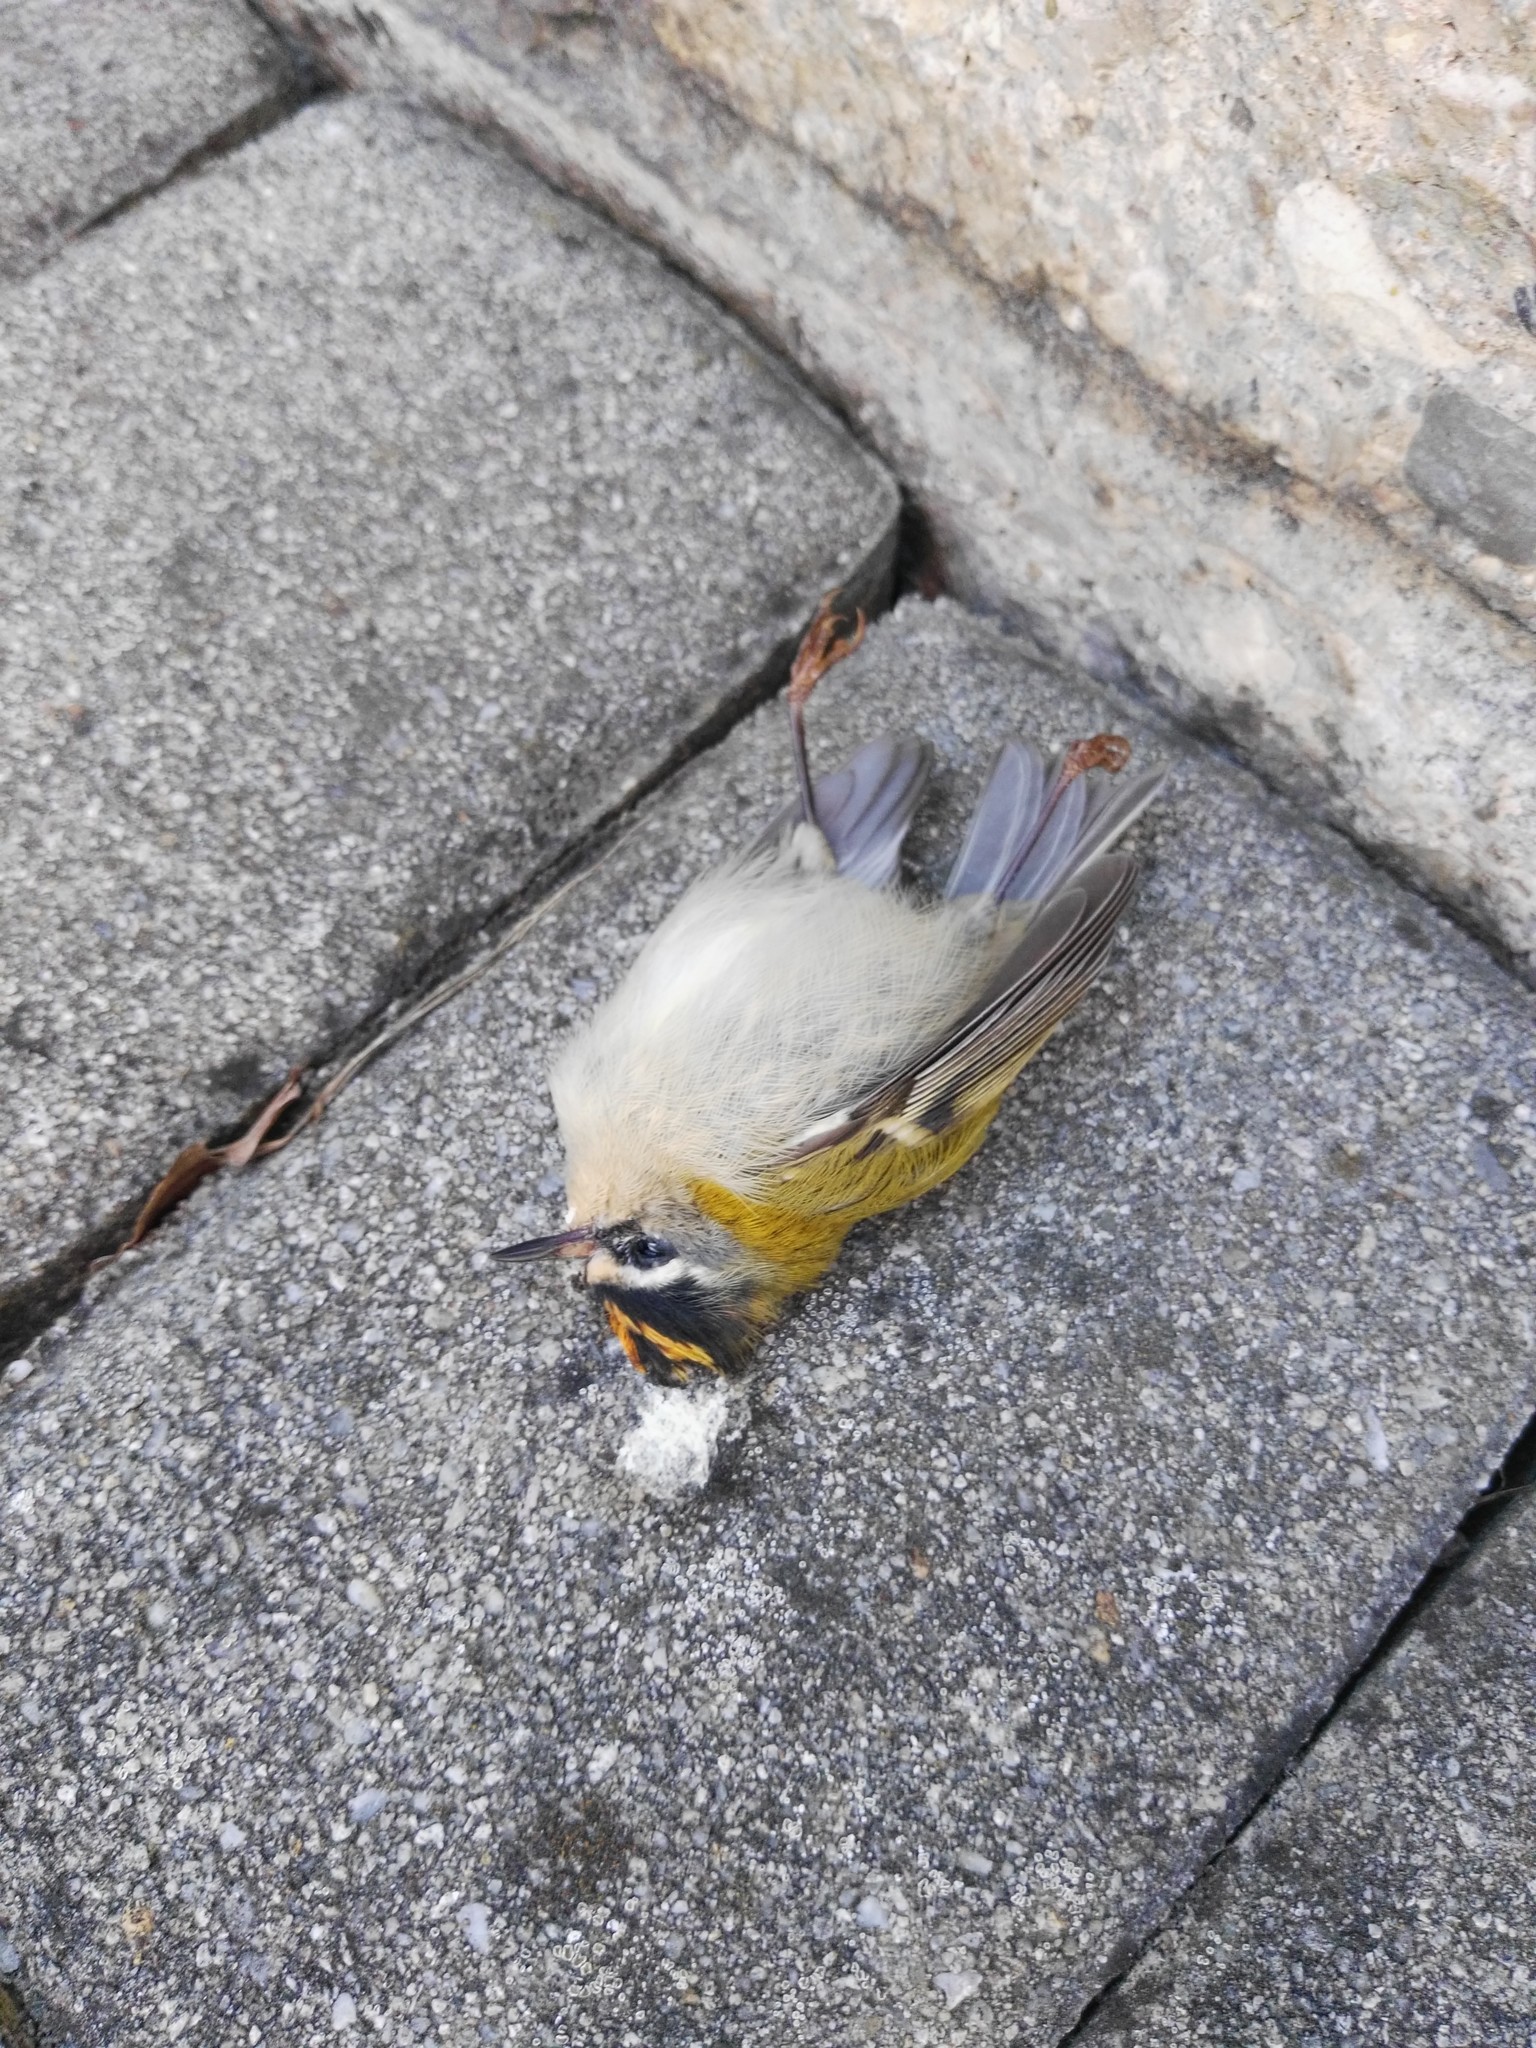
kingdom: Animalia
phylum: Chordata
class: Aves
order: Passeriformes
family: Regulidae
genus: Regulus
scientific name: Regulus ignicapilla
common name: Firecrest
